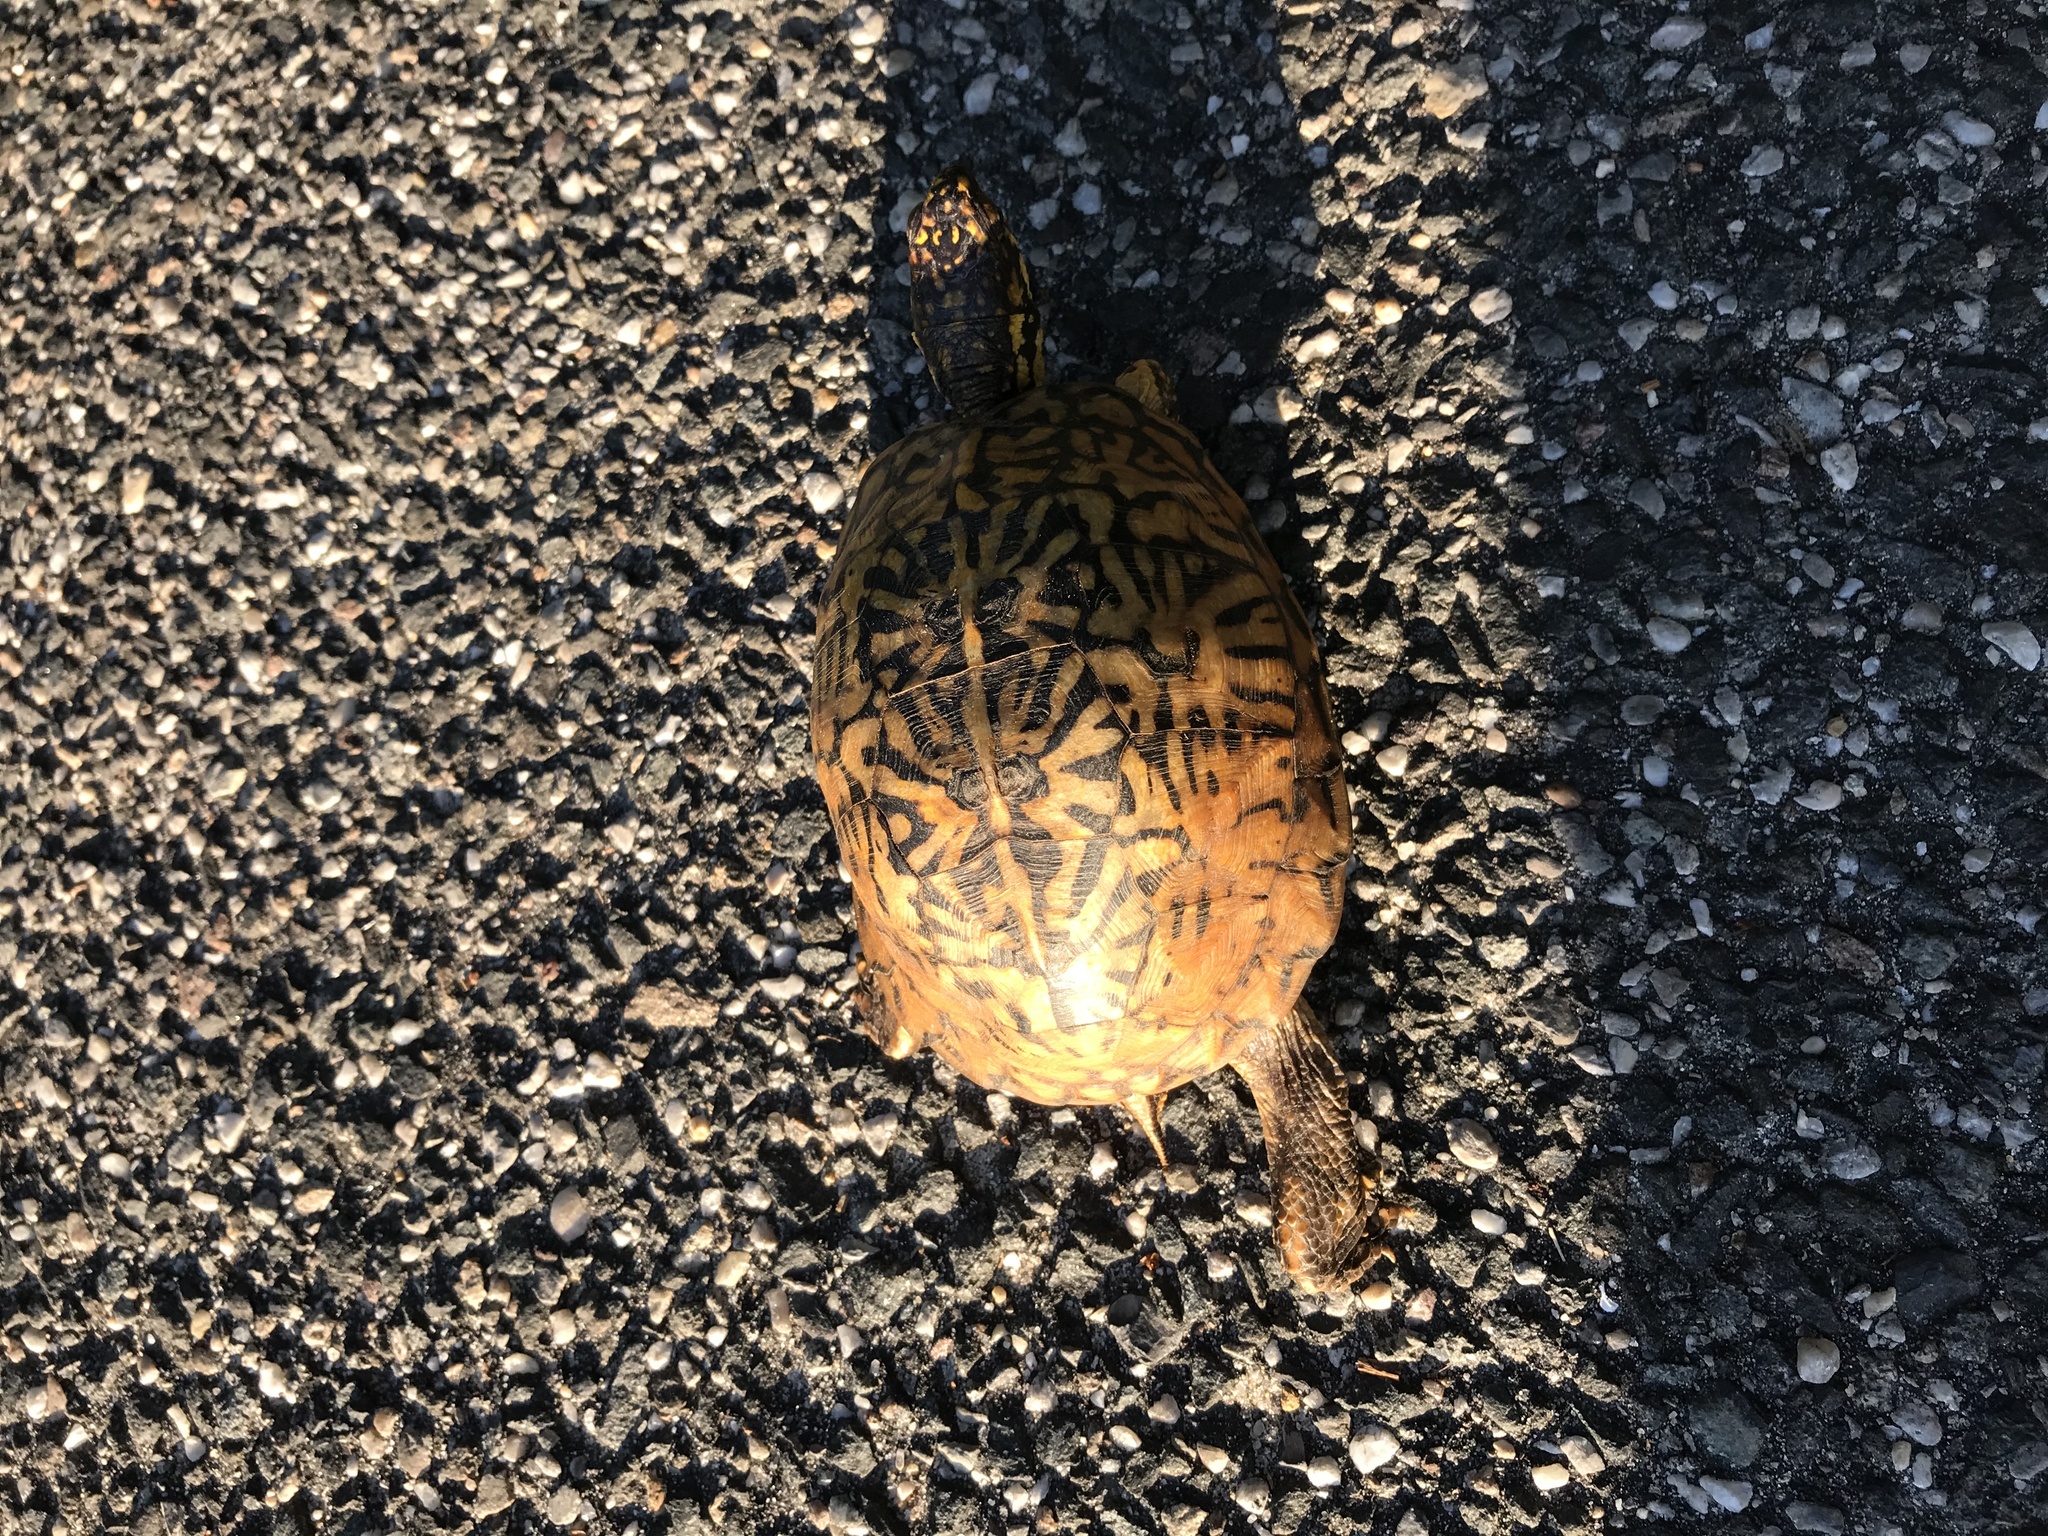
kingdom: Animalia
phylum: Chordata
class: Testudines
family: Emydidae
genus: Terrapene
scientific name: Terrapene carolina
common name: Common box turtle
